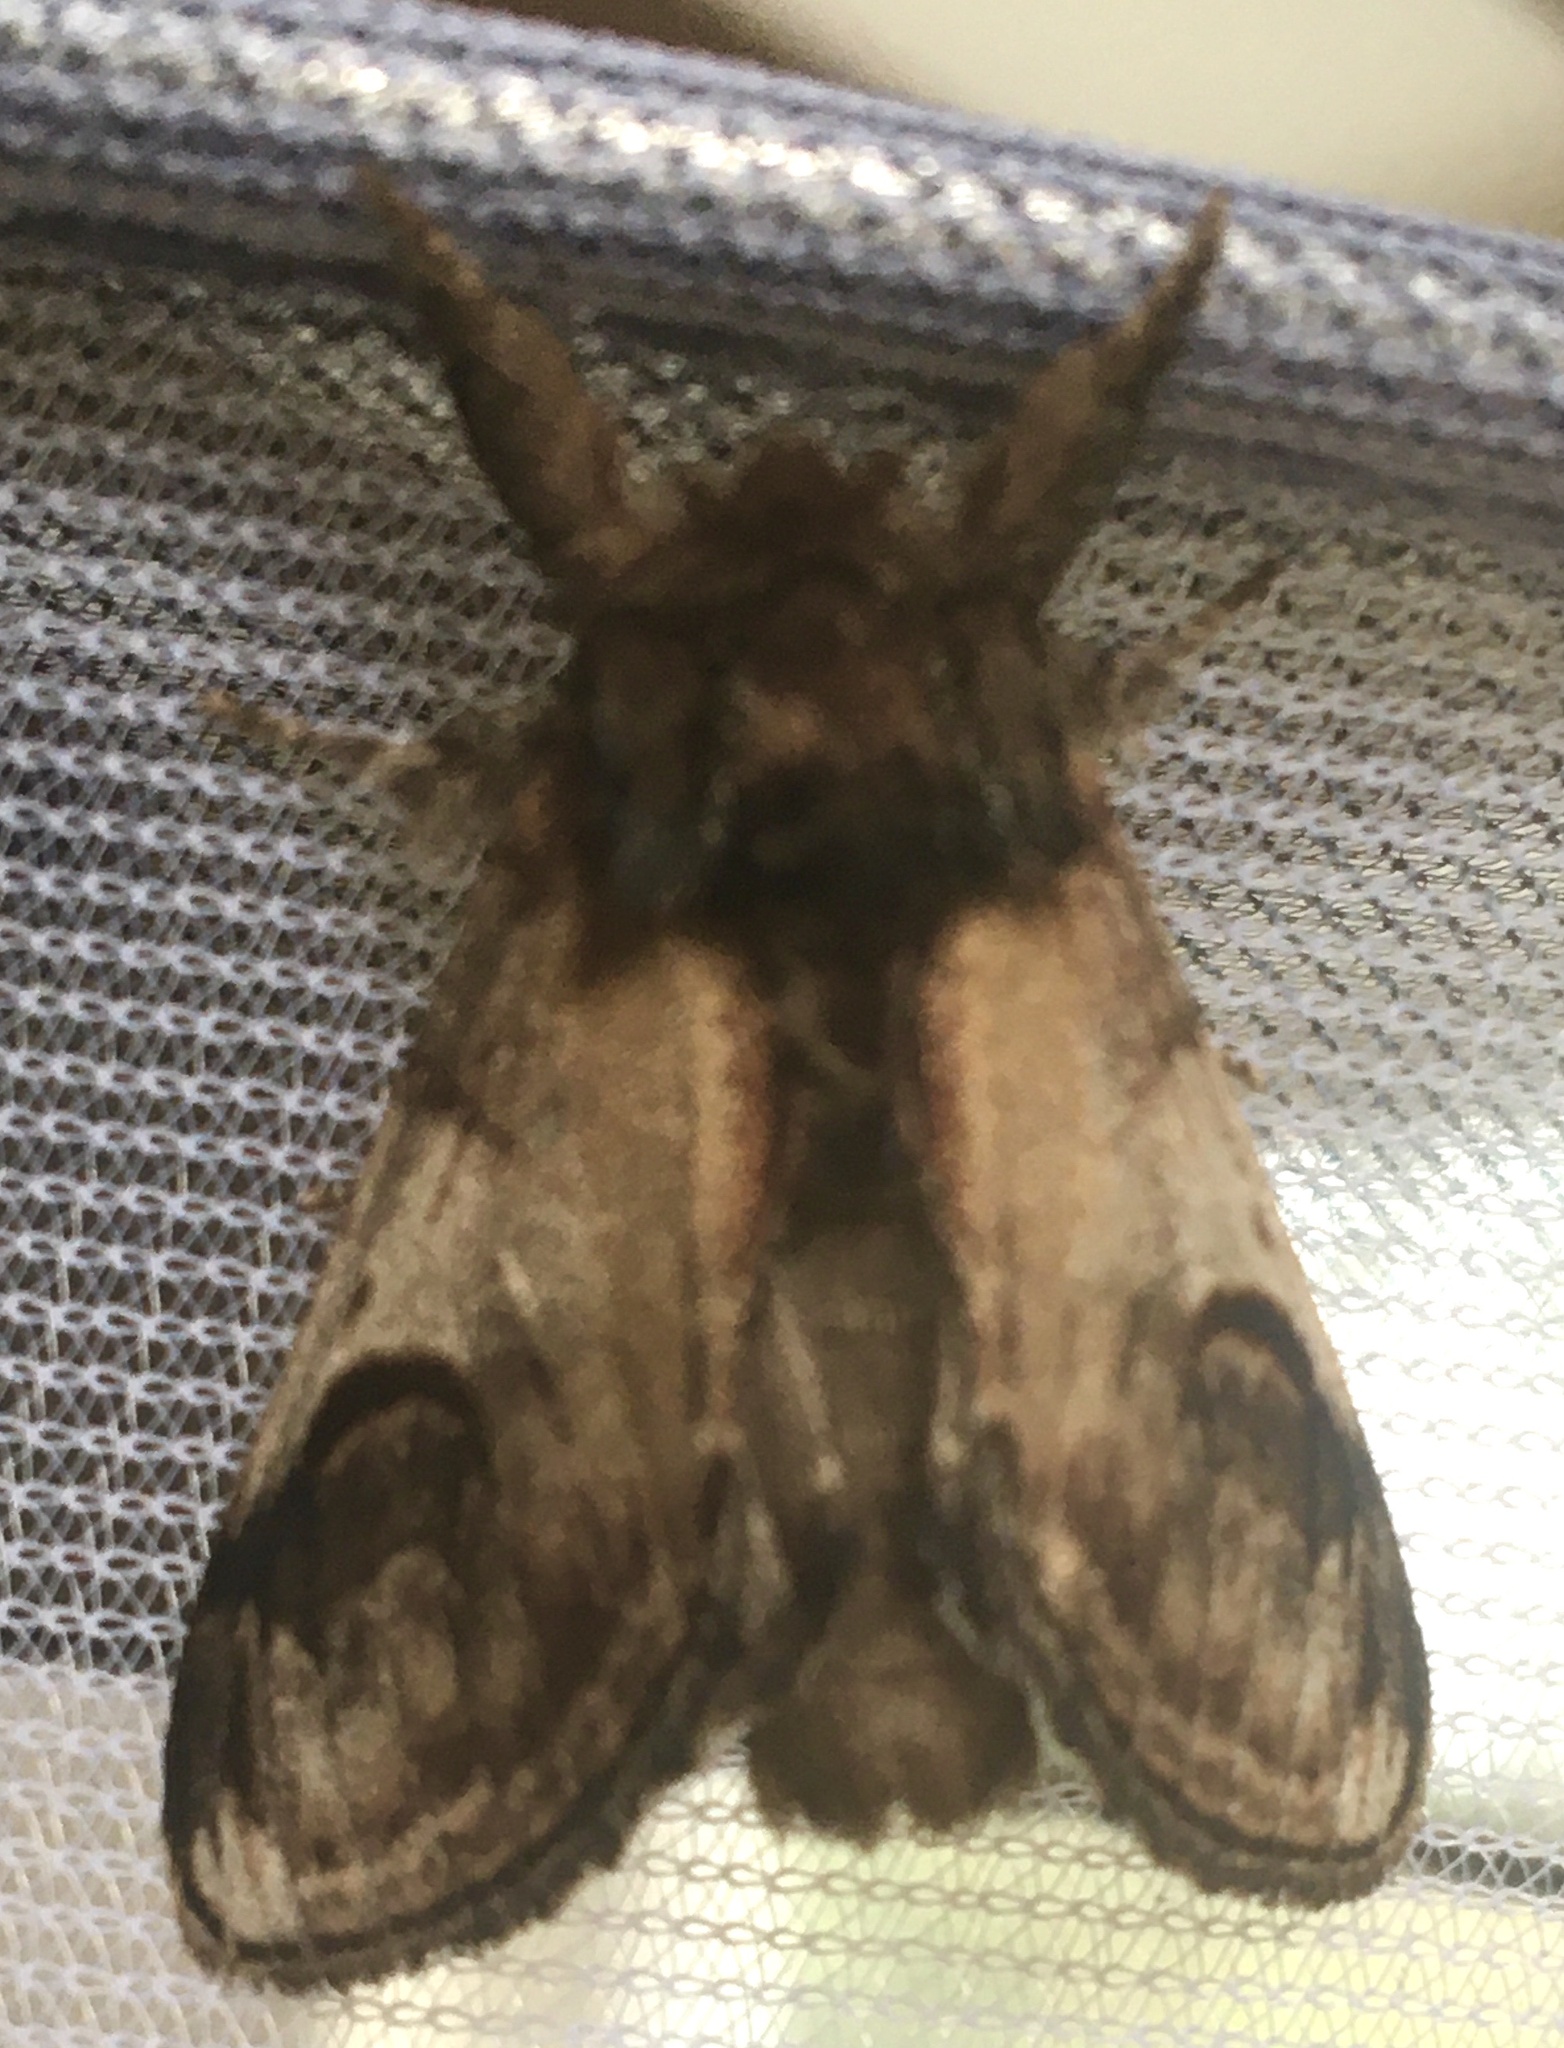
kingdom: Animalia
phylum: Arthropoda
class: Insecta
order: Lepidoptera
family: Notodontidae
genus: Notodonta
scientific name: Notodonta ziczac
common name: Pebble prominent
